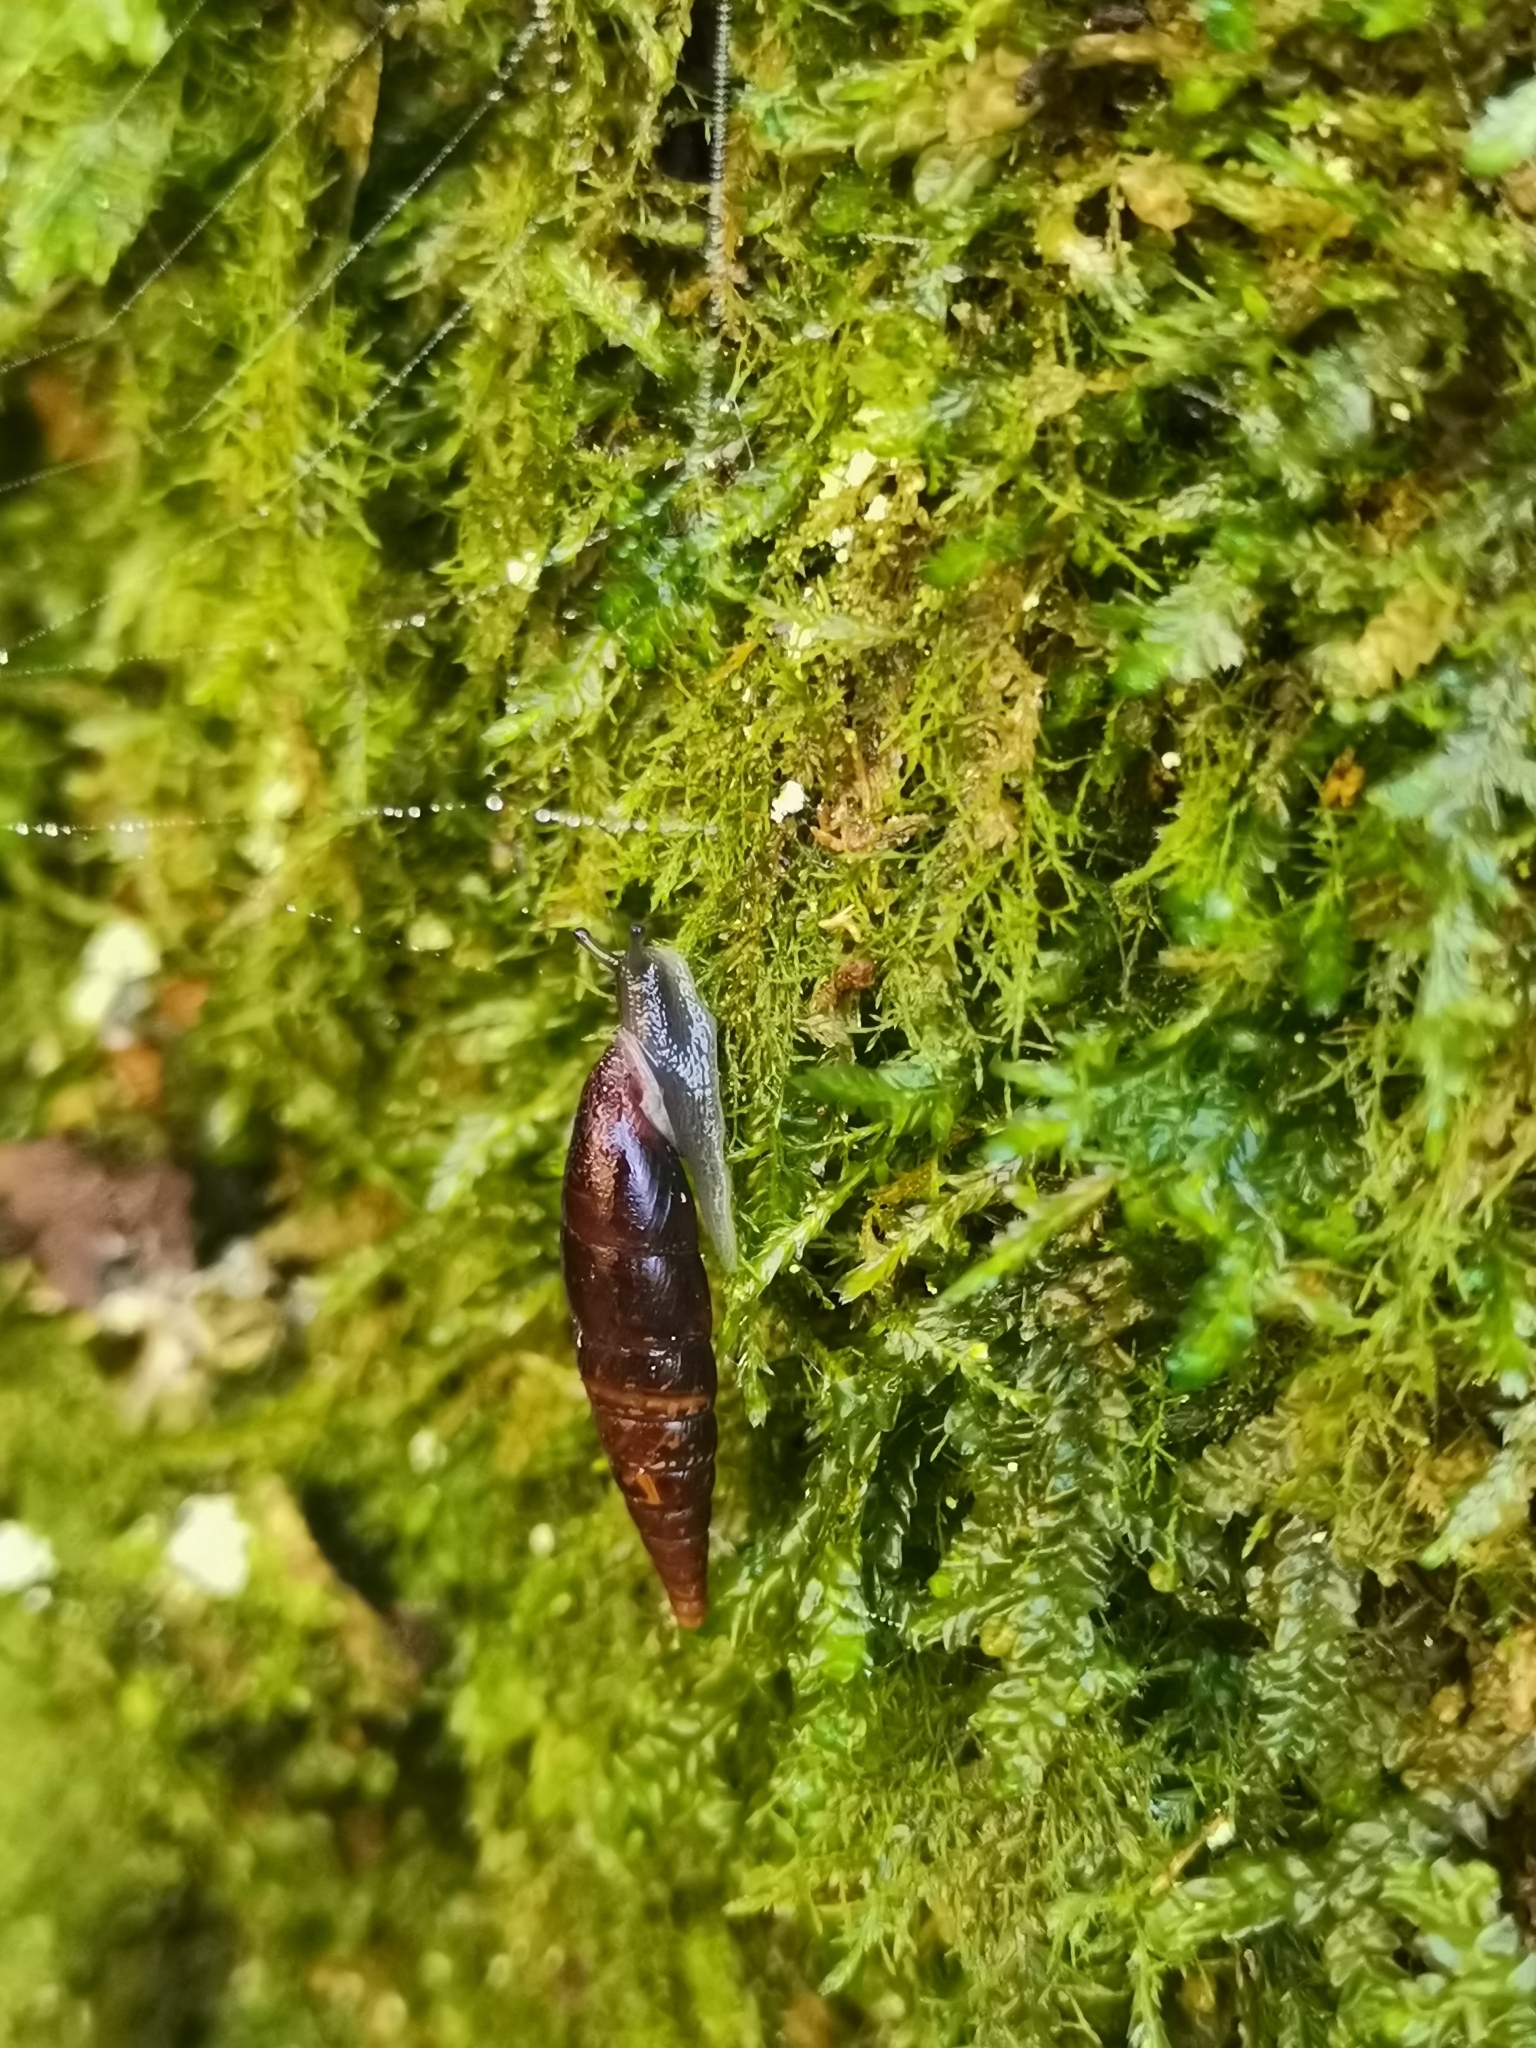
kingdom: Animalia
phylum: Mollusca
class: Gastropoda
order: Stylommatophora
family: Clausiliidae
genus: Cochlodina
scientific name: Cochlodina laminata
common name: Plaited door snail
